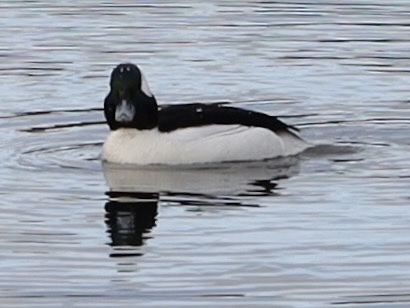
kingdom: Animalia
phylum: Chordata
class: Aves
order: Anseriformes
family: Anatidae
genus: Bucephala
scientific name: Bucephala albeola
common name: Bufflehead
